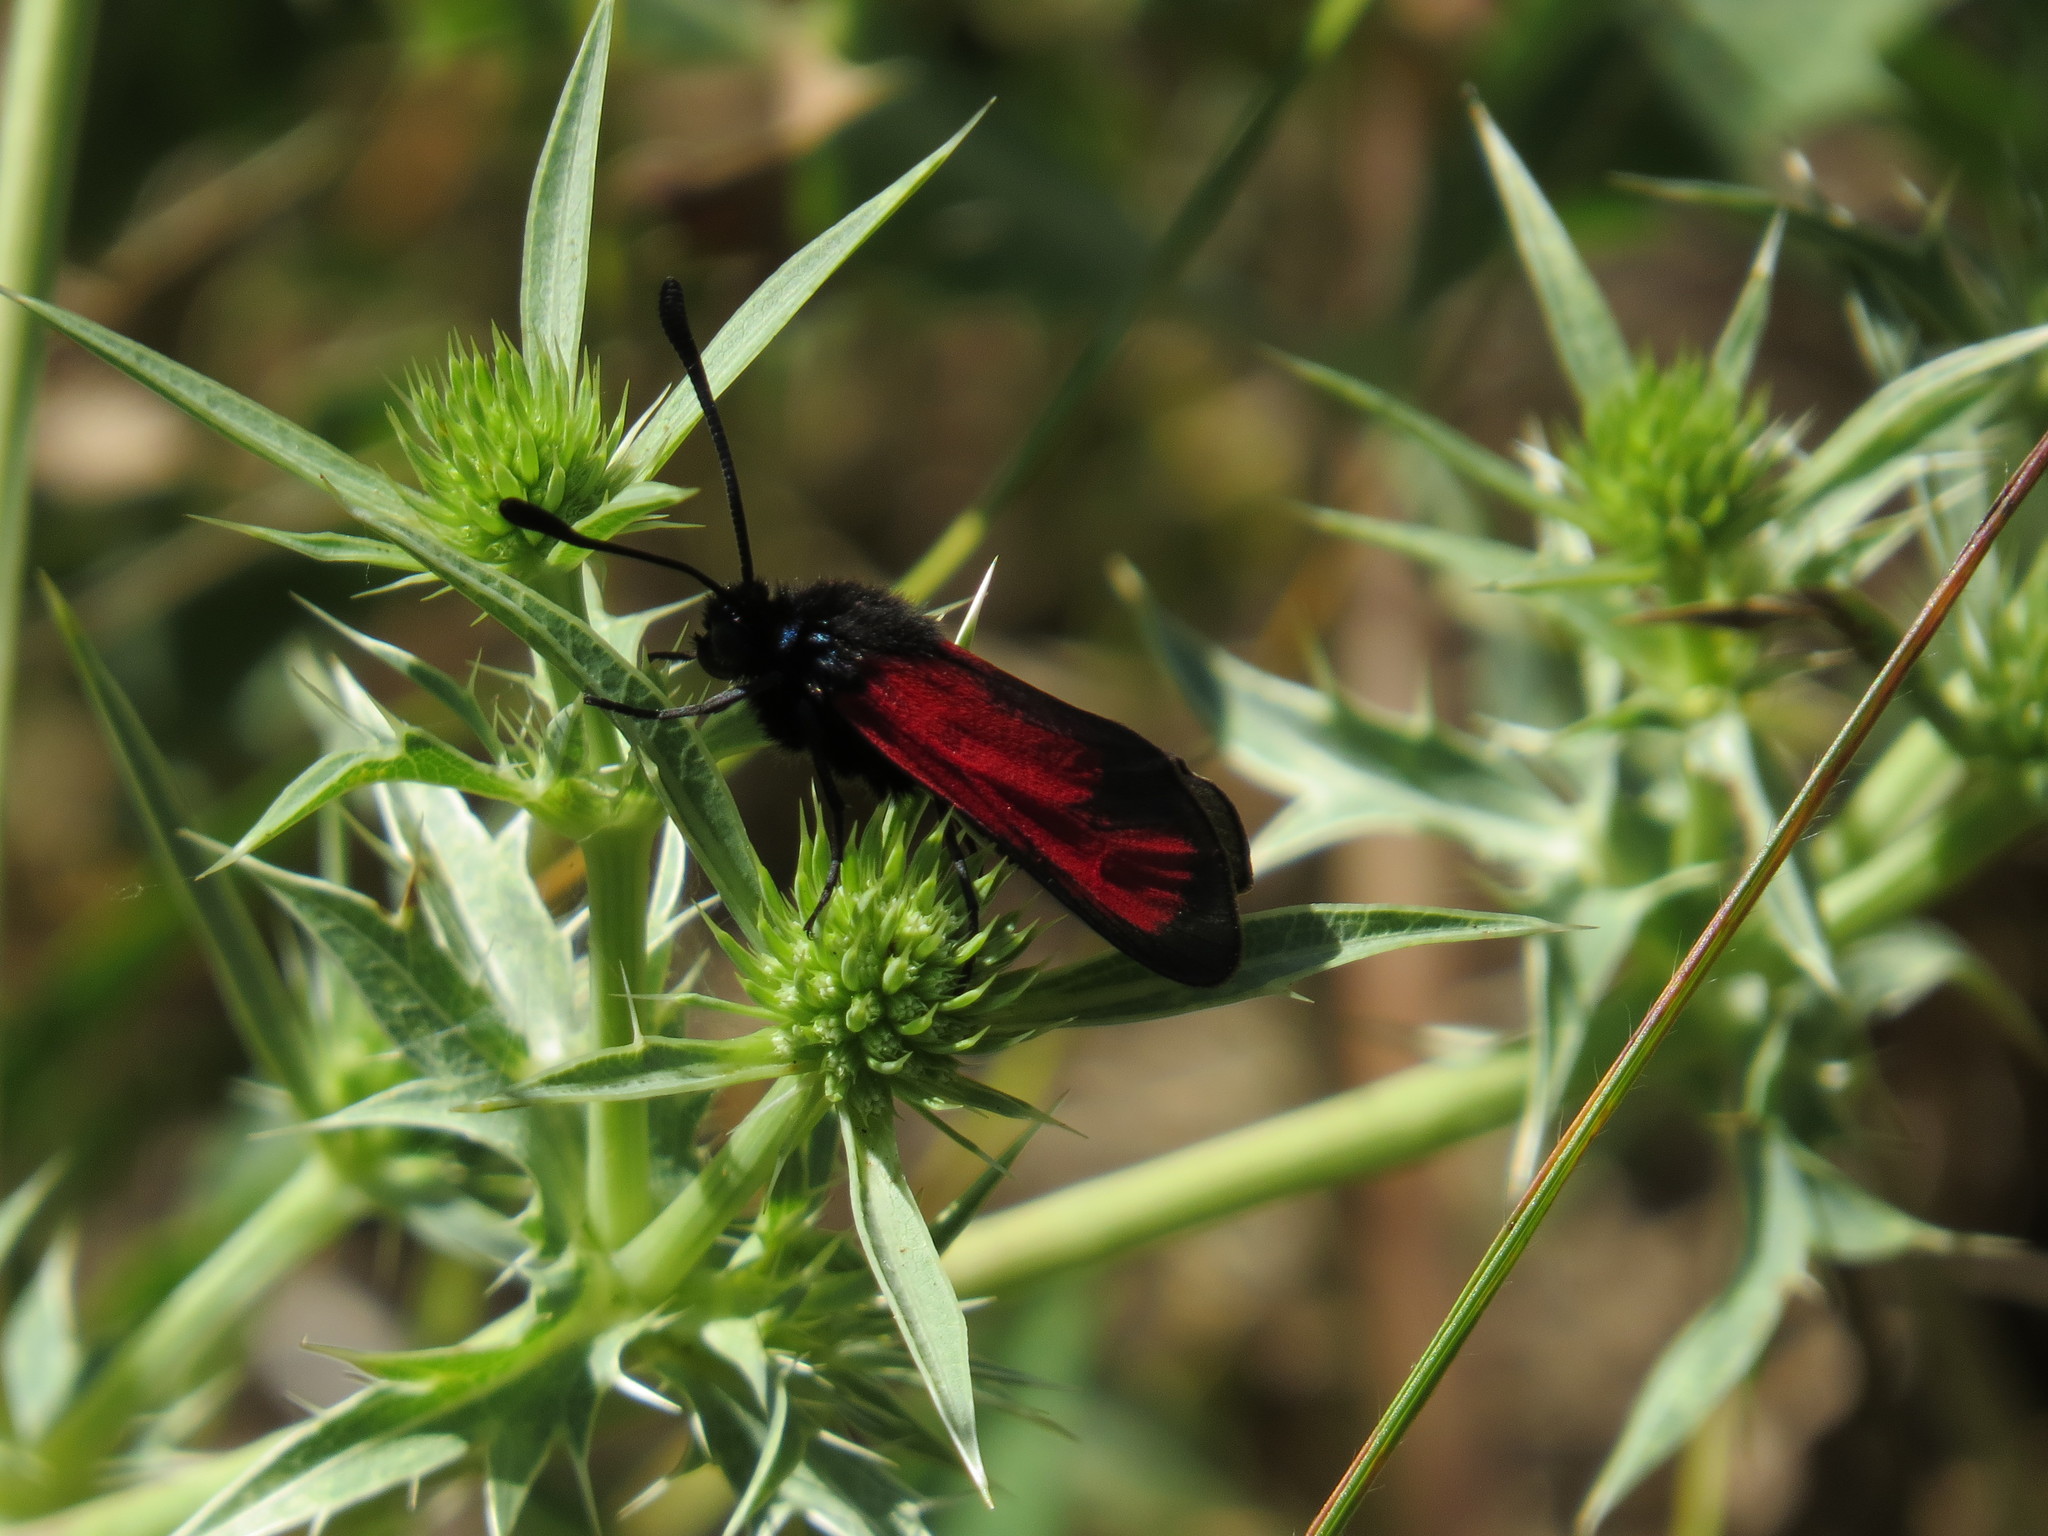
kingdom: Animalia
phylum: Arthropoda
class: Insecta
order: Lepidoptera
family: Zygaenidae
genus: Zygaena
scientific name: Zygaena erythrus
